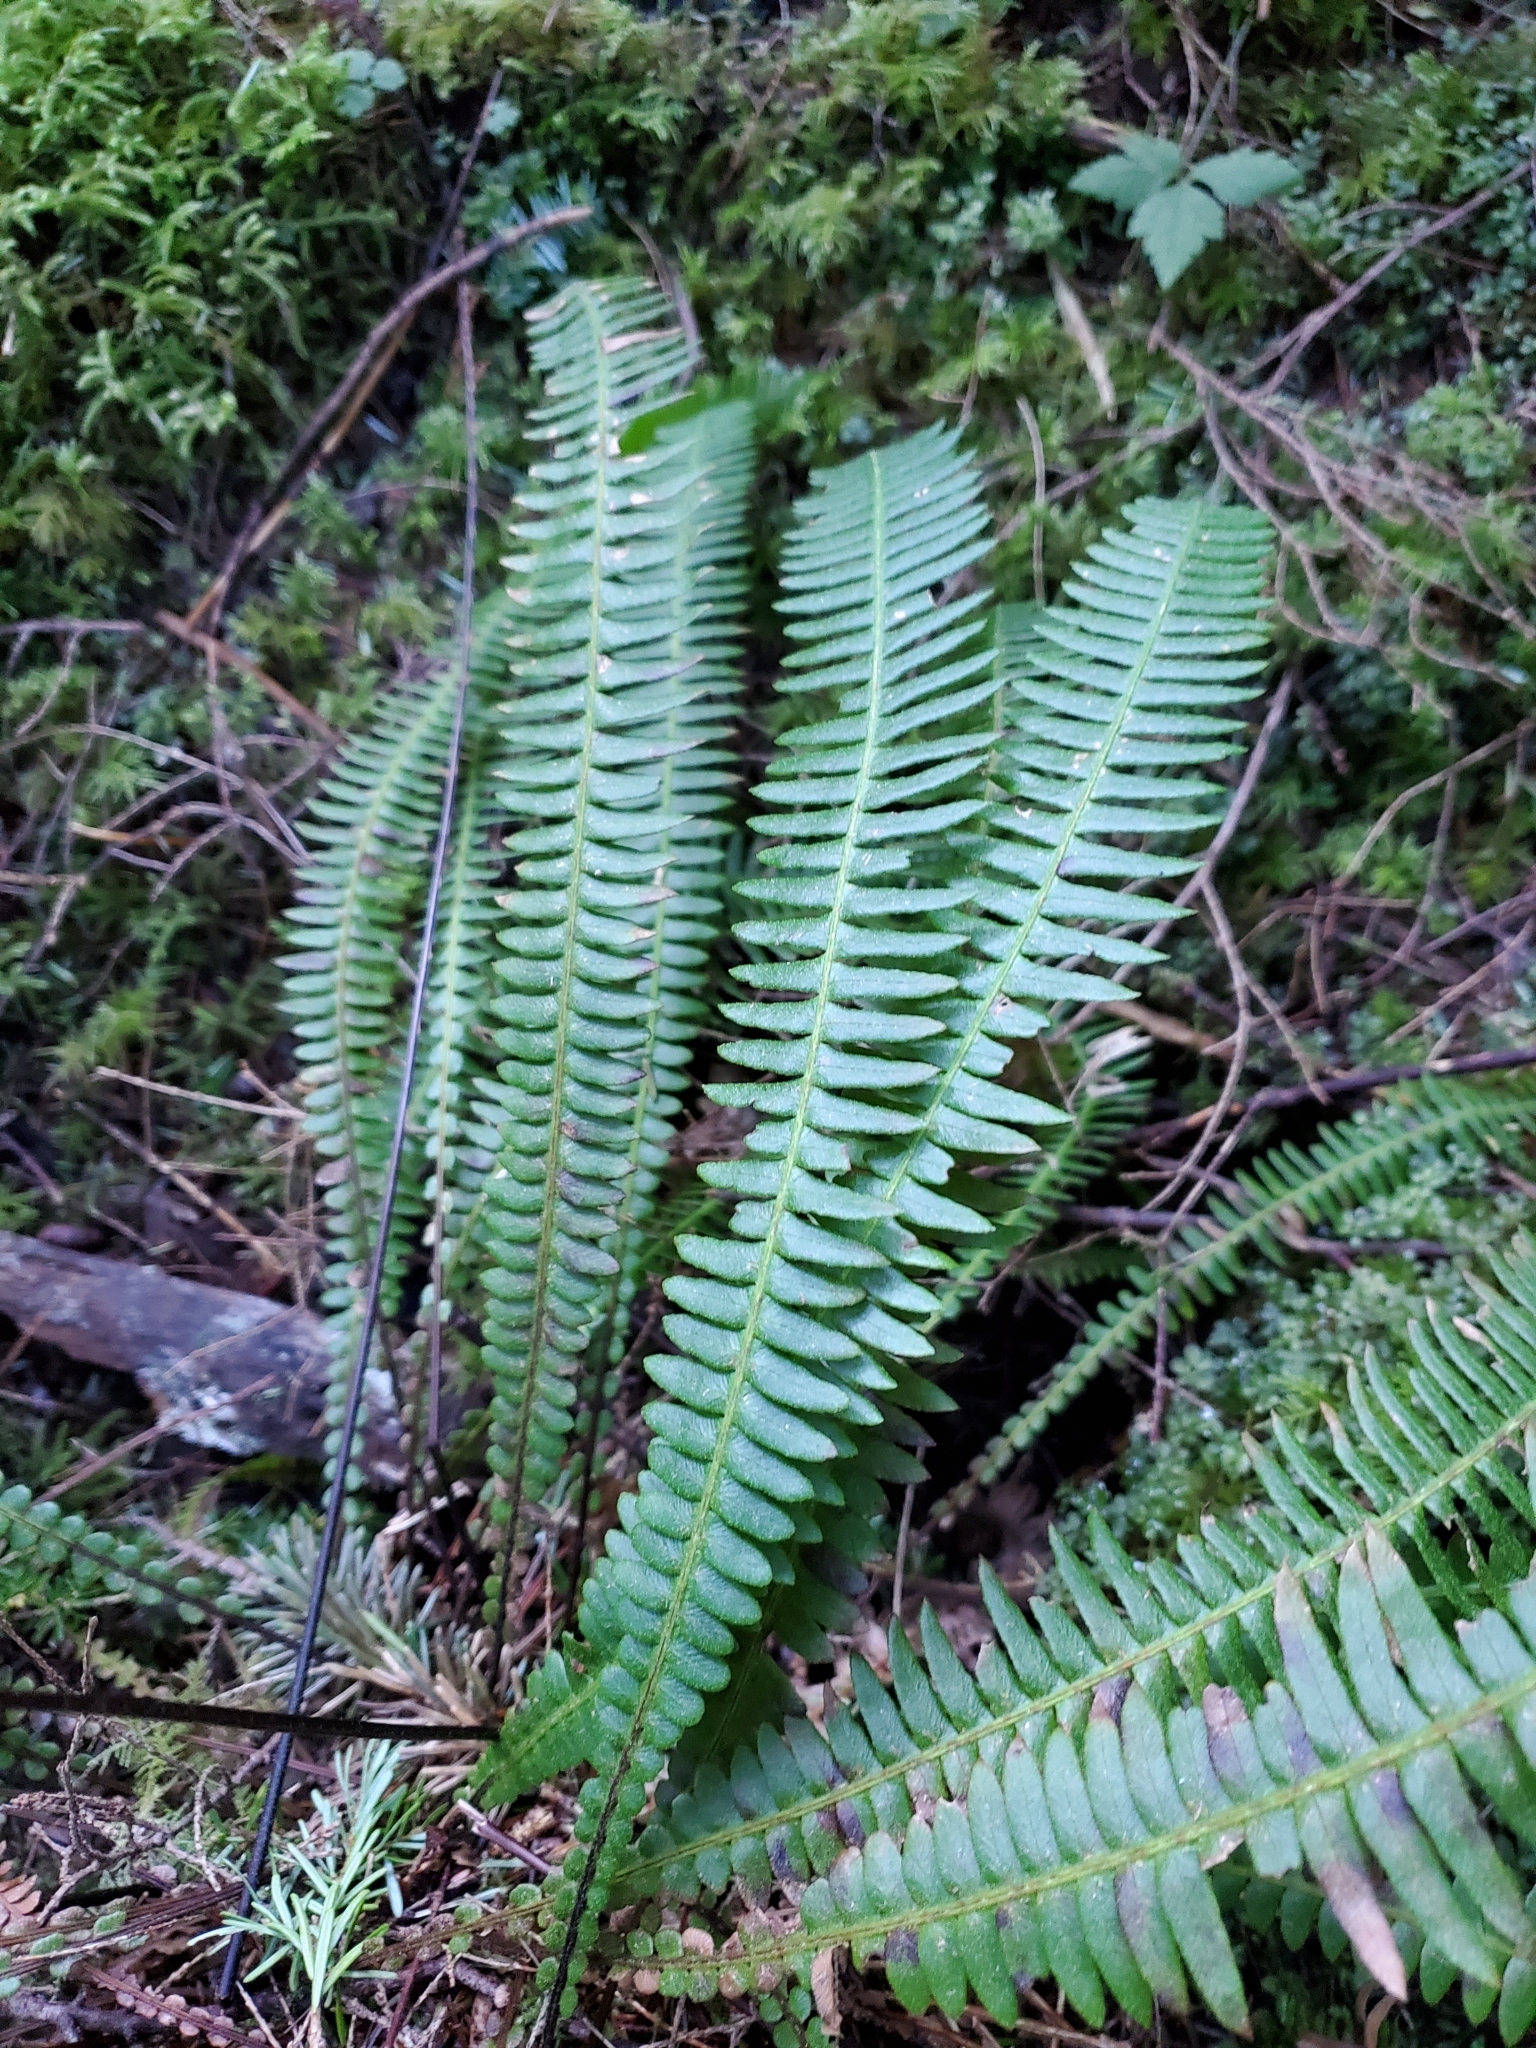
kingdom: Plantae
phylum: Tracheophyta
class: Polypodiopsida
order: Polypodiales
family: Blechnaceae
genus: Struthiopteris
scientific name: Struthiopteris spicant
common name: Deer fern
